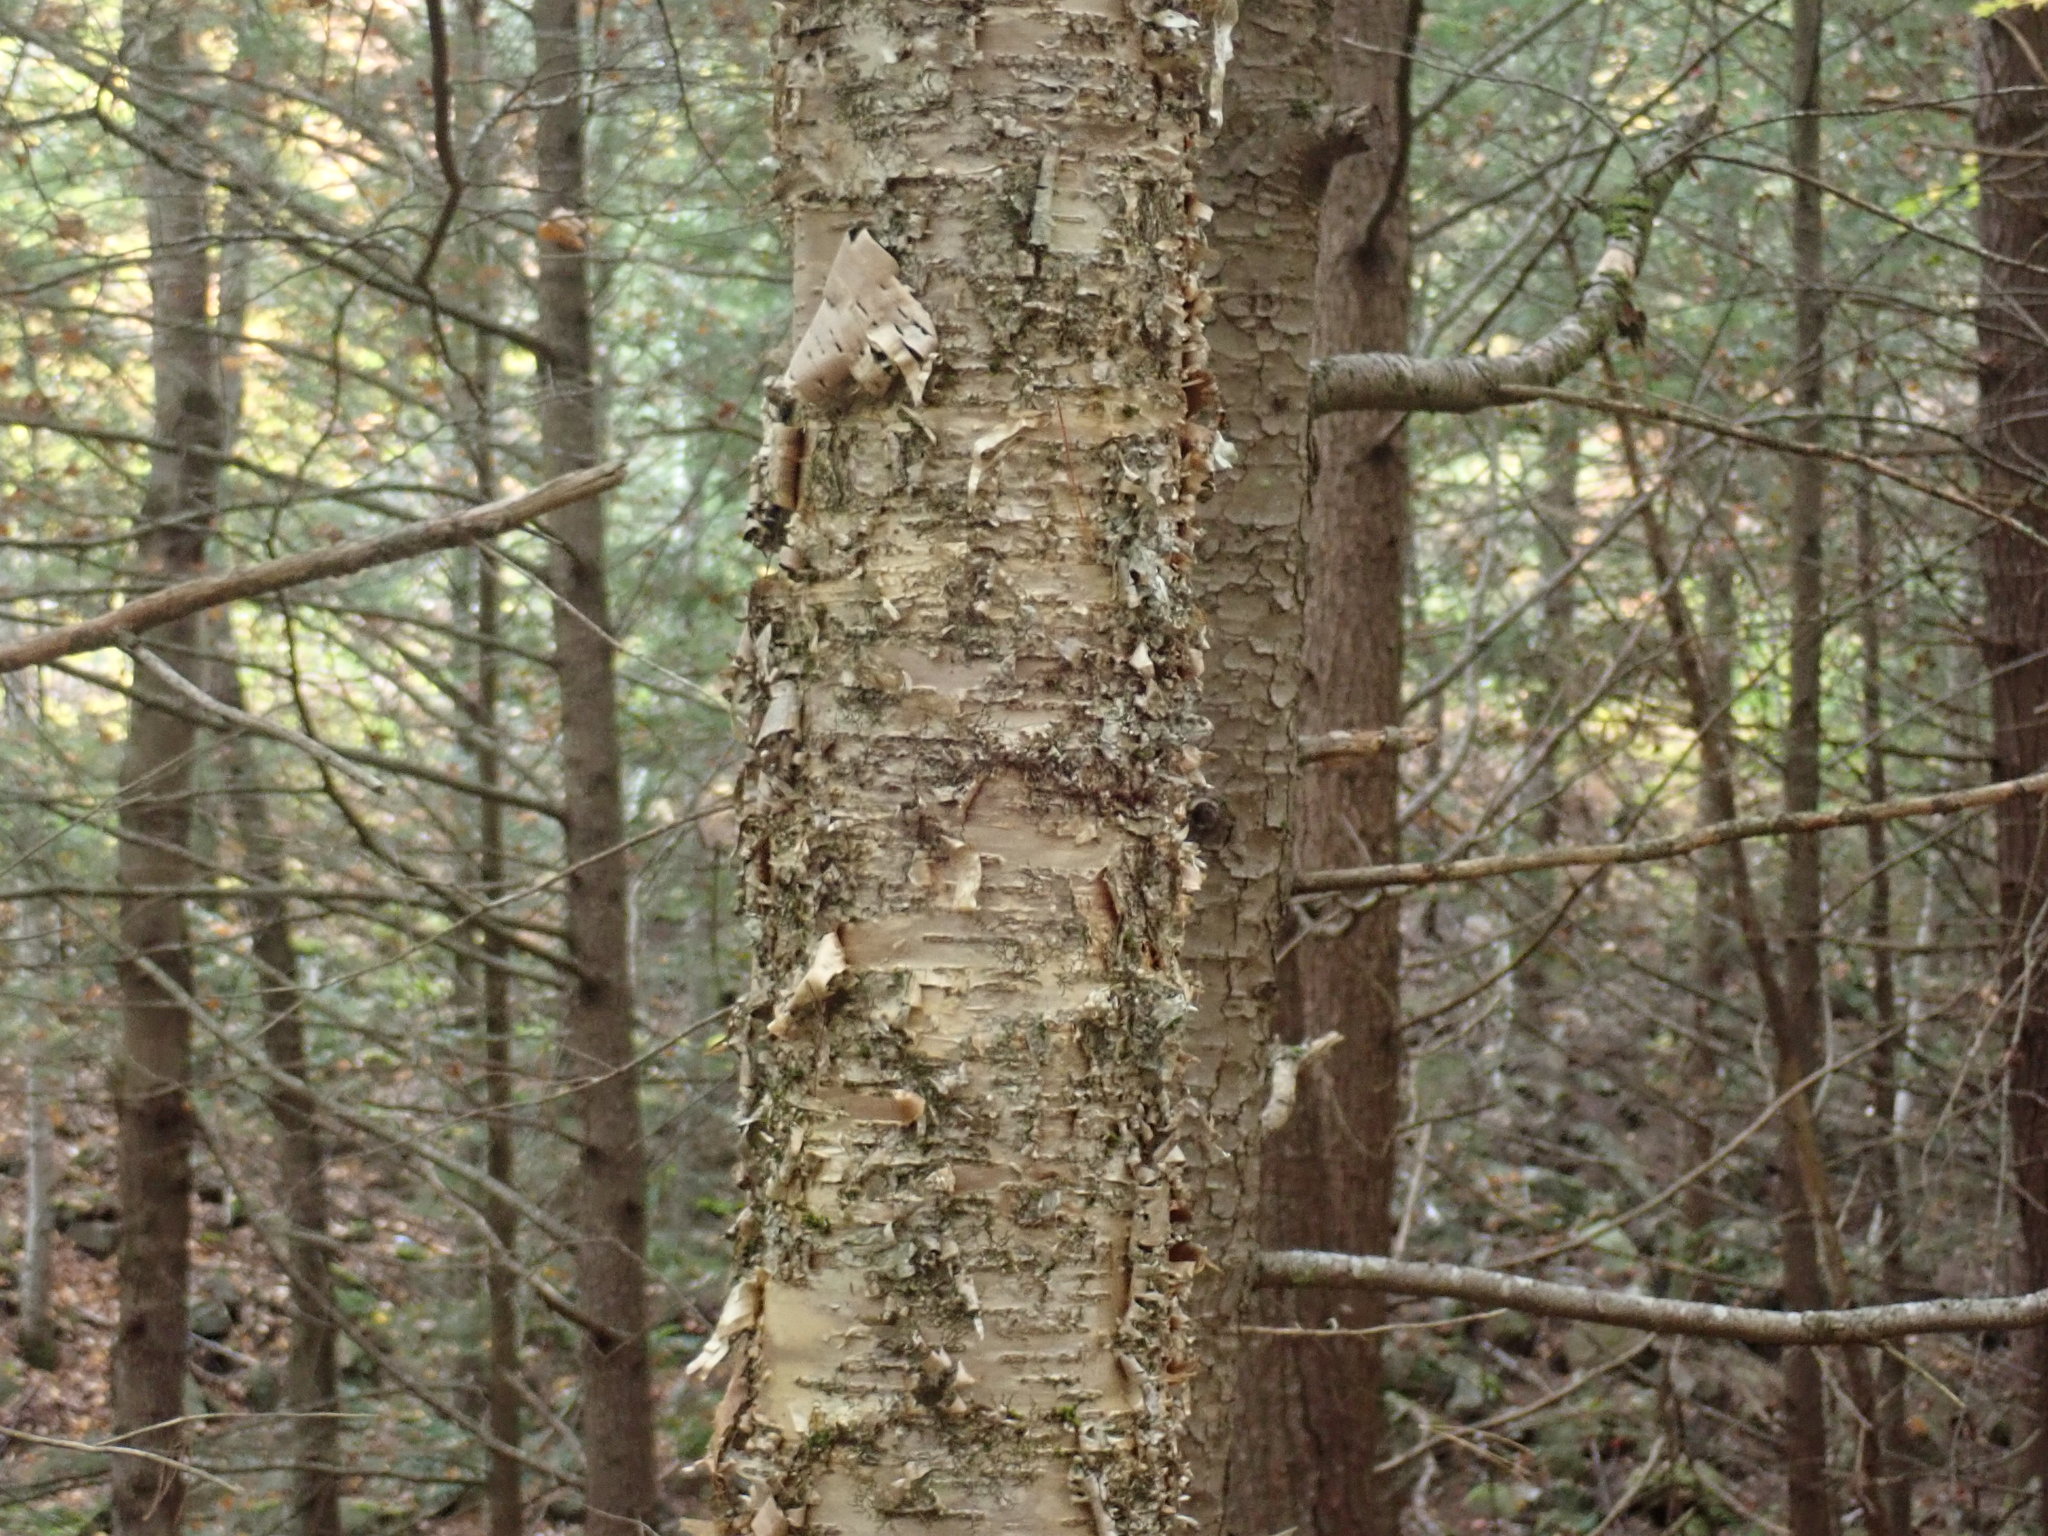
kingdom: Plantae
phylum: Tracheophyta
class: Magnoliopsida
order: Fagales
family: Betulaceae
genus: Betula
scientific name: Betula alleghaniensis
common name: Yellow birch
